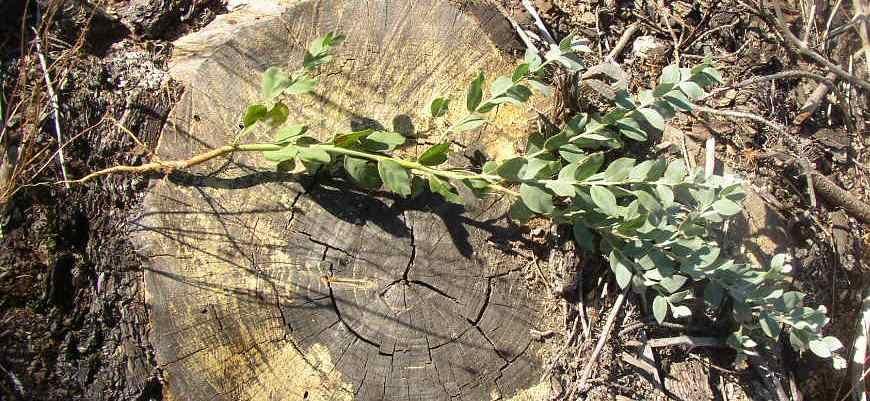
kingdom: Plantae
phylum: Tracheophyta
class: Magnoliopsida
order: Fabales
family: Fabaceae
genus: Acacia
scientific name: Acacia podalyriifolia
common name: Pearl wattle
